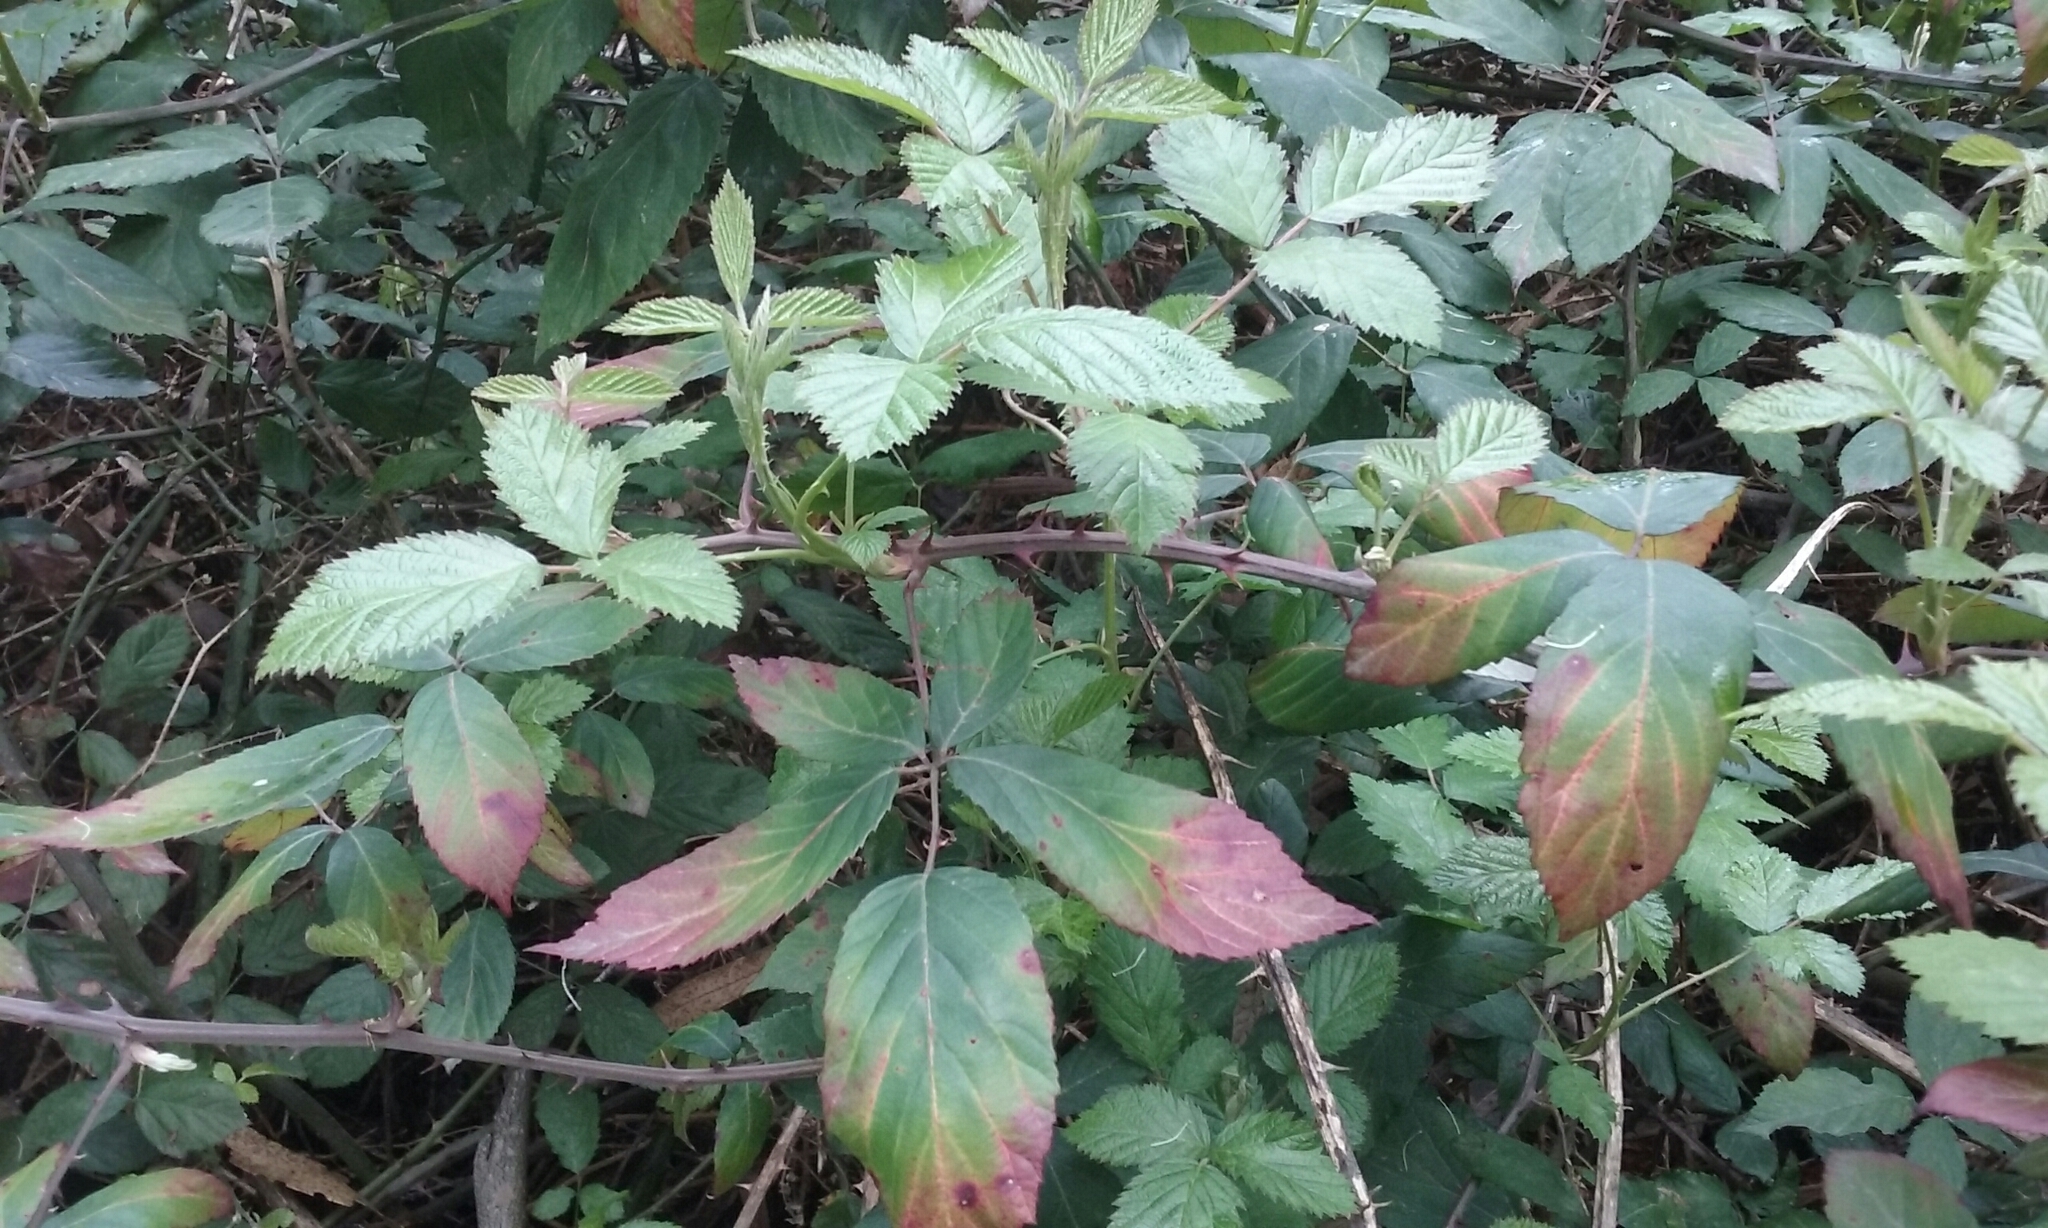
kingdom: Plantae
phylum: Tracheophyta
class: Magnoliopsida
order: Rosales
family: Rosaceae
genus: Rubus
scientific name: Rubus armeniacus
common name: Himalayan blackberry
